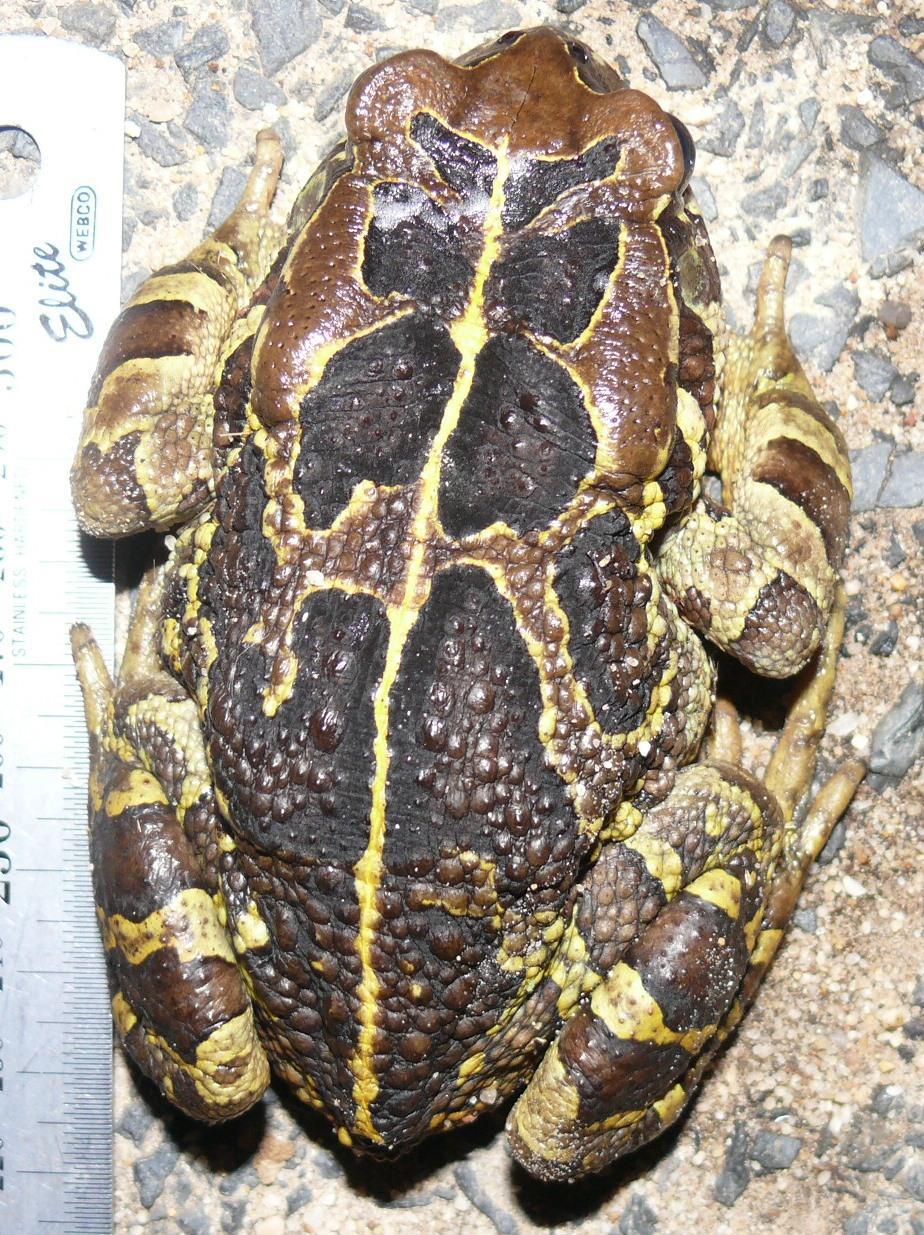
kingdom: Animalia
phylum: Chordata
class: Amphibia
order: Anura
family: Bufonidae
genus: Sclerophrys
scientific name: Sclerophrys pantherina
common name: Panther toad
